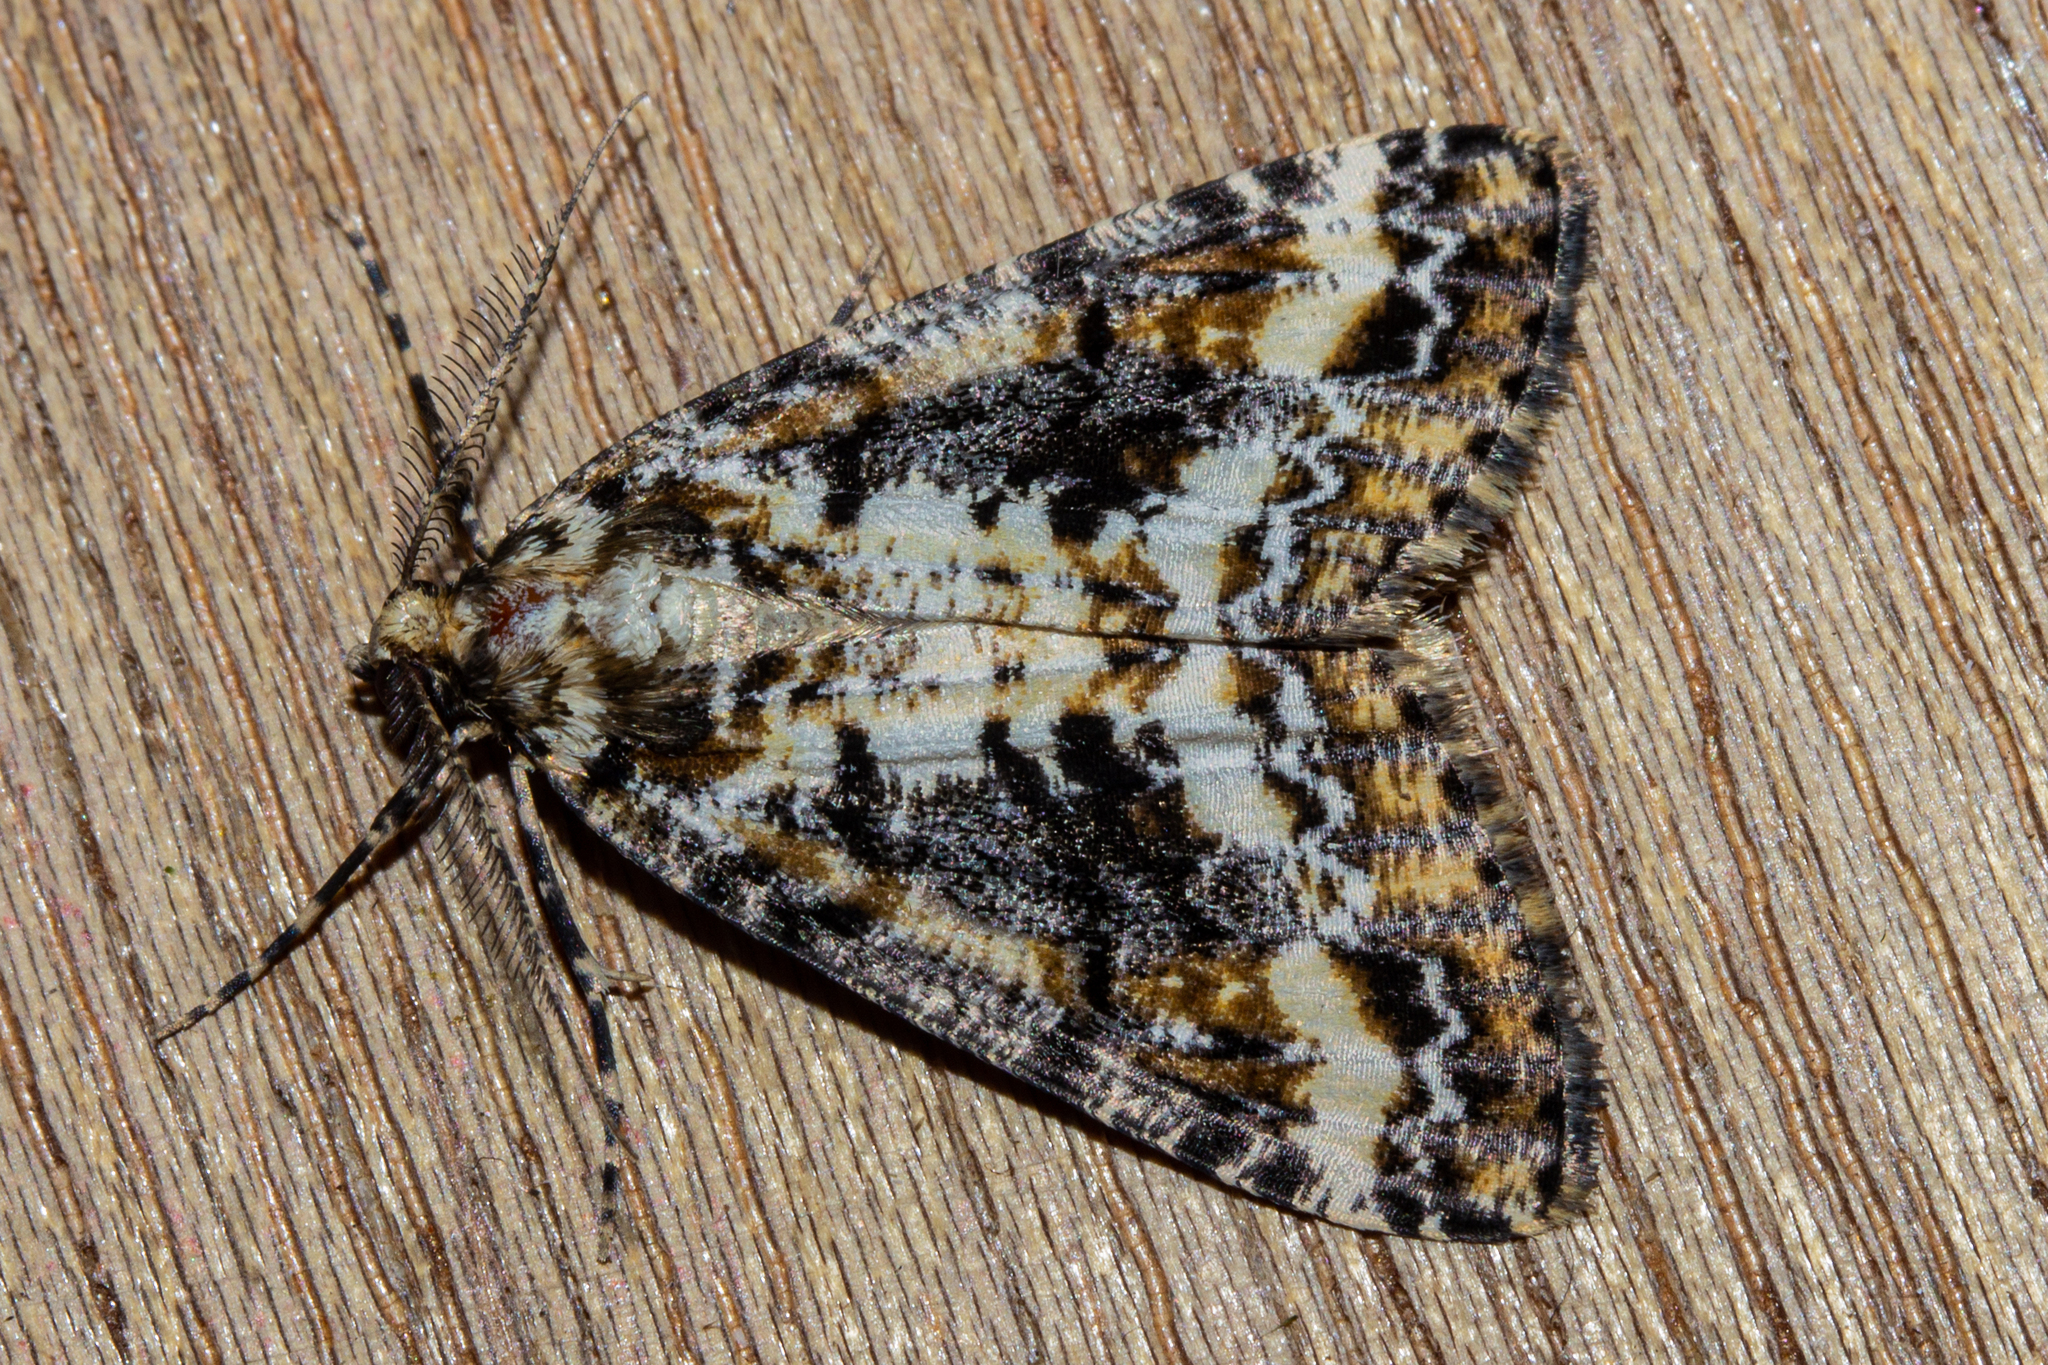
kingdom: Animalia
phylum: Arthropoda
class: Insecta
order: Lepidoptera
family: Geometridae
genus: Pseudocoremia
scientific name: Pseudocoremia leucelaea
